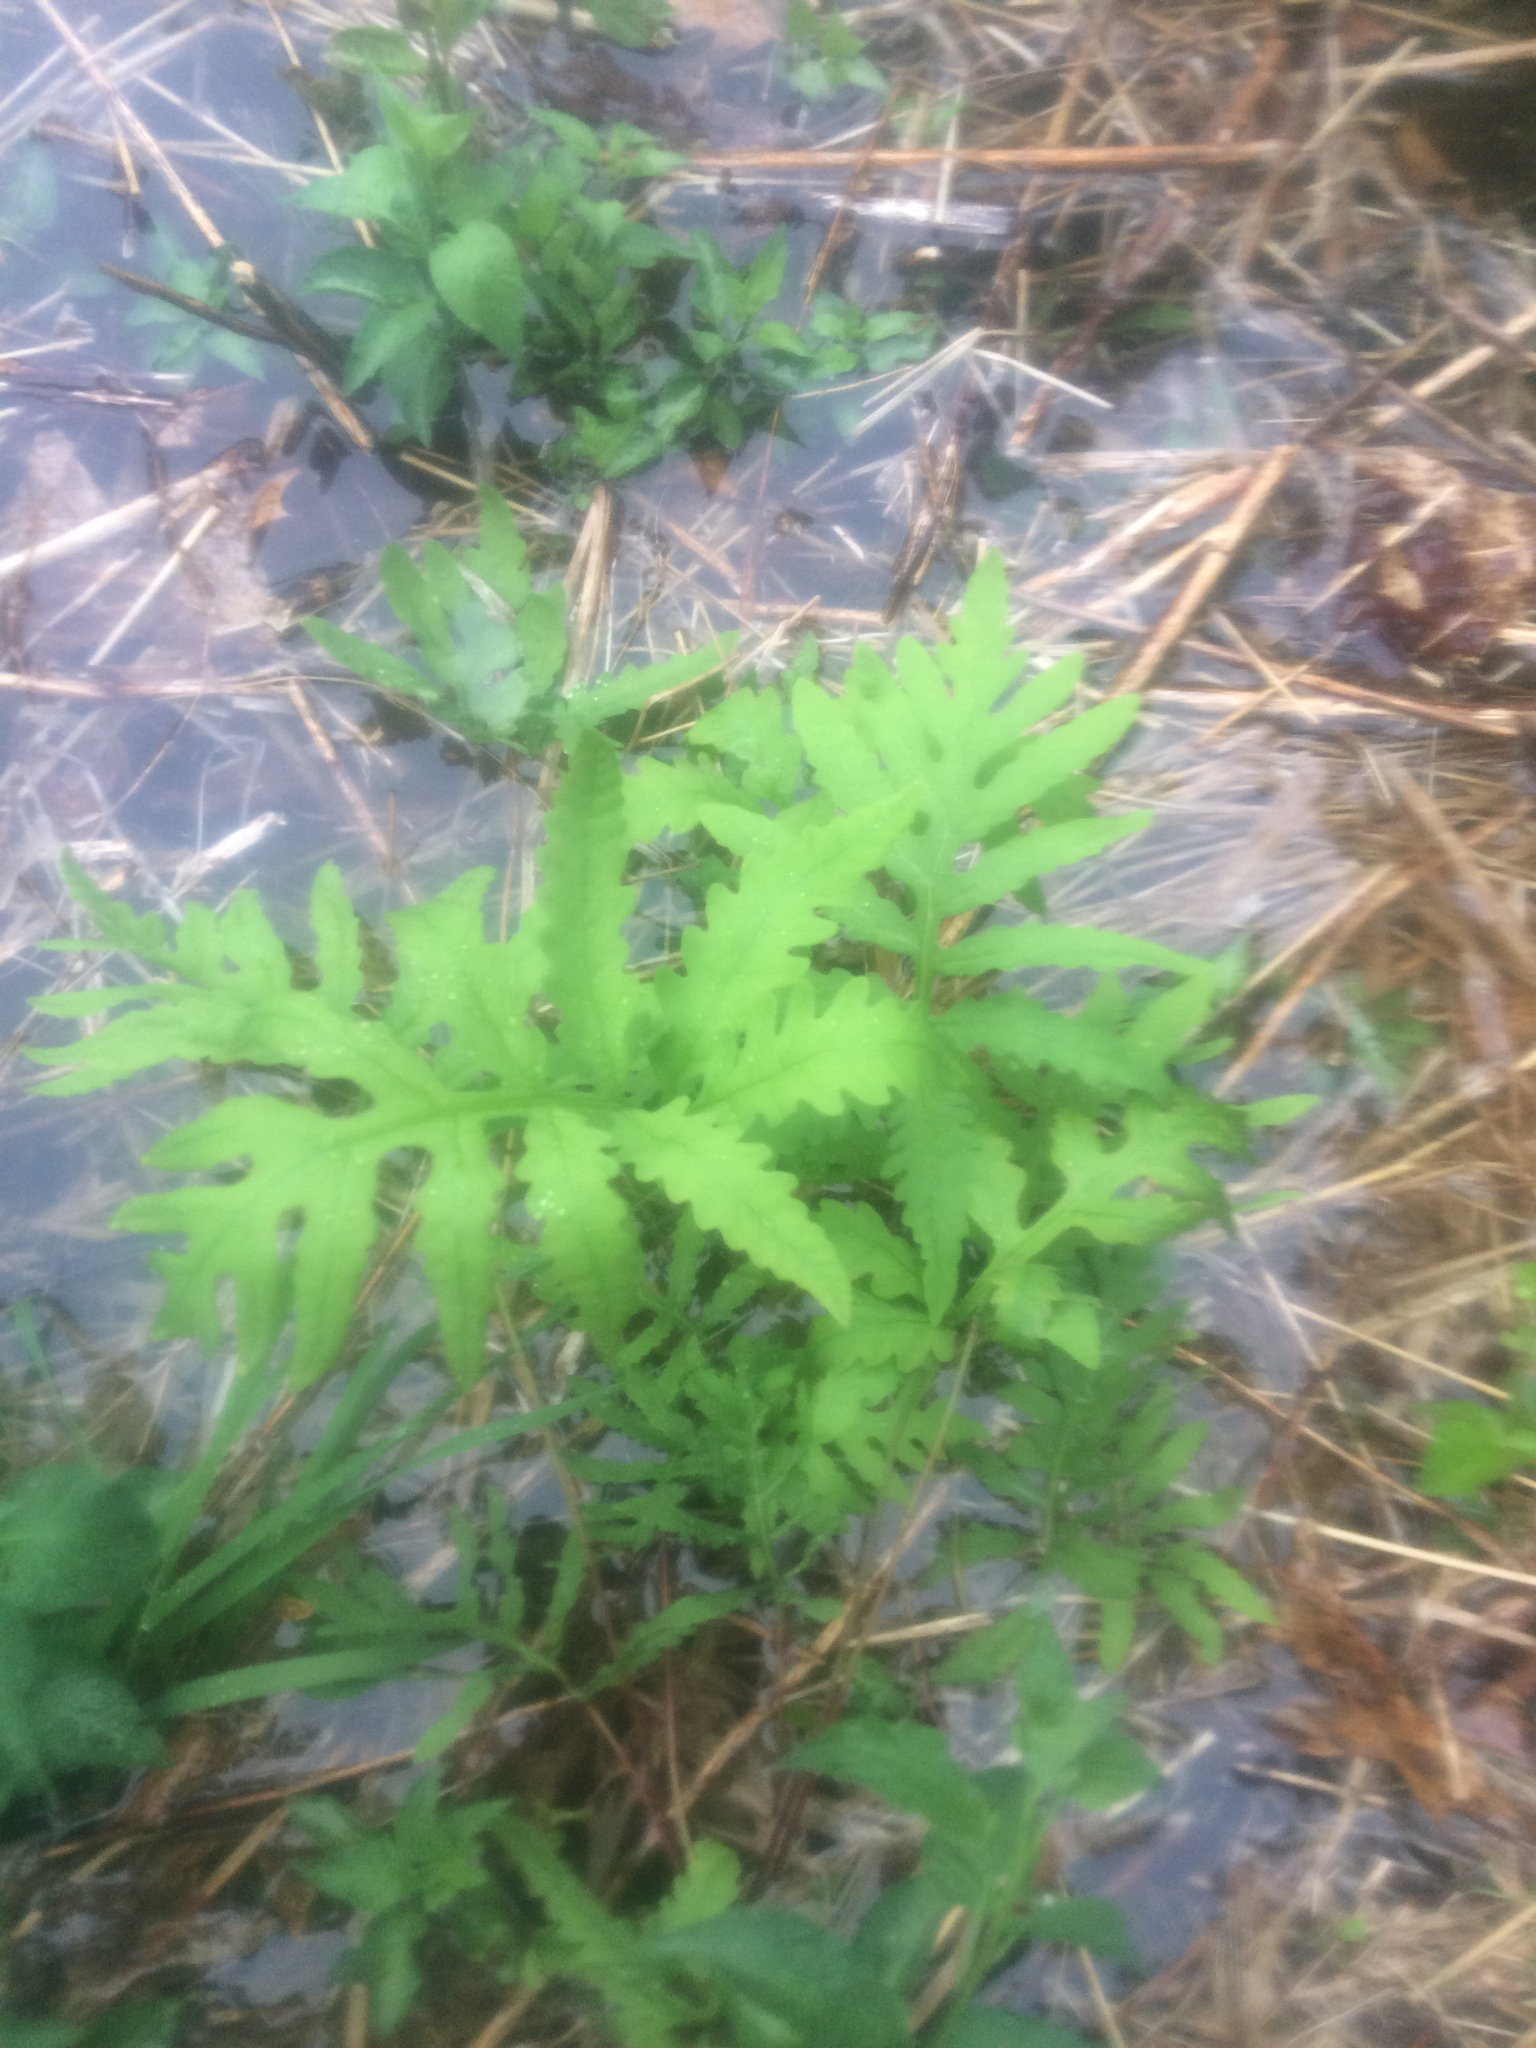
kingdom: Plantae
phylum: Tracheophyta
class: Polypodiopsida
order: Polypodiales
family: Onocleaceae
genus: Onoclea
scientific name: Onoclea sensibilis
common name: Sensitive fern
